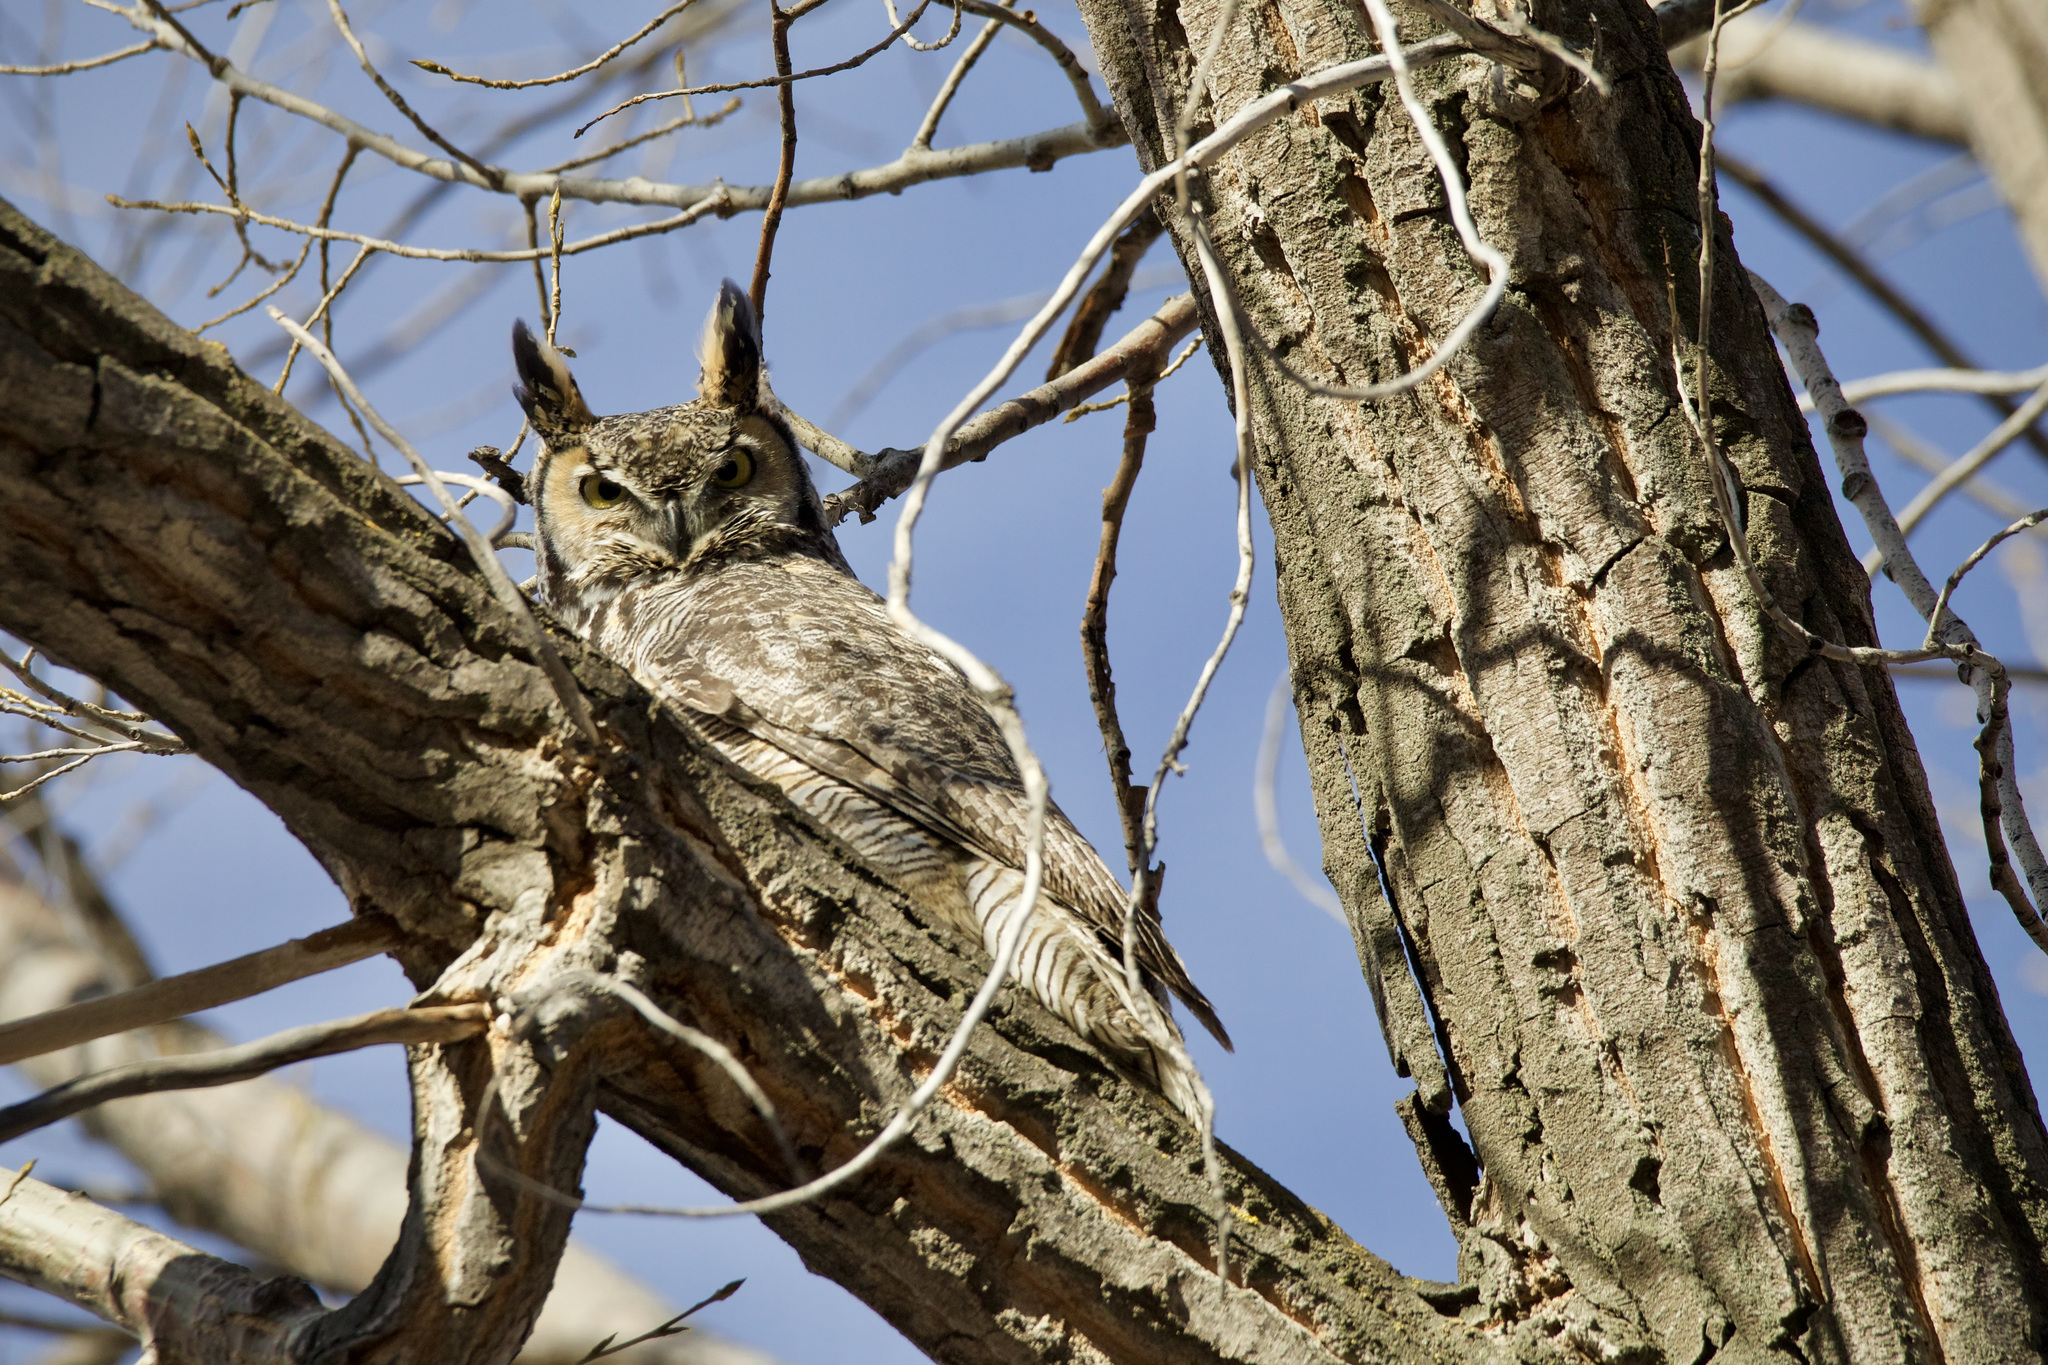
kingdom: Animalia
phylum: Chordata
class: Aves
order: Strigiformes
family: Strigidae
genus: Bubo
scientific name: Bubo virginianus
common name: Great horned owl
